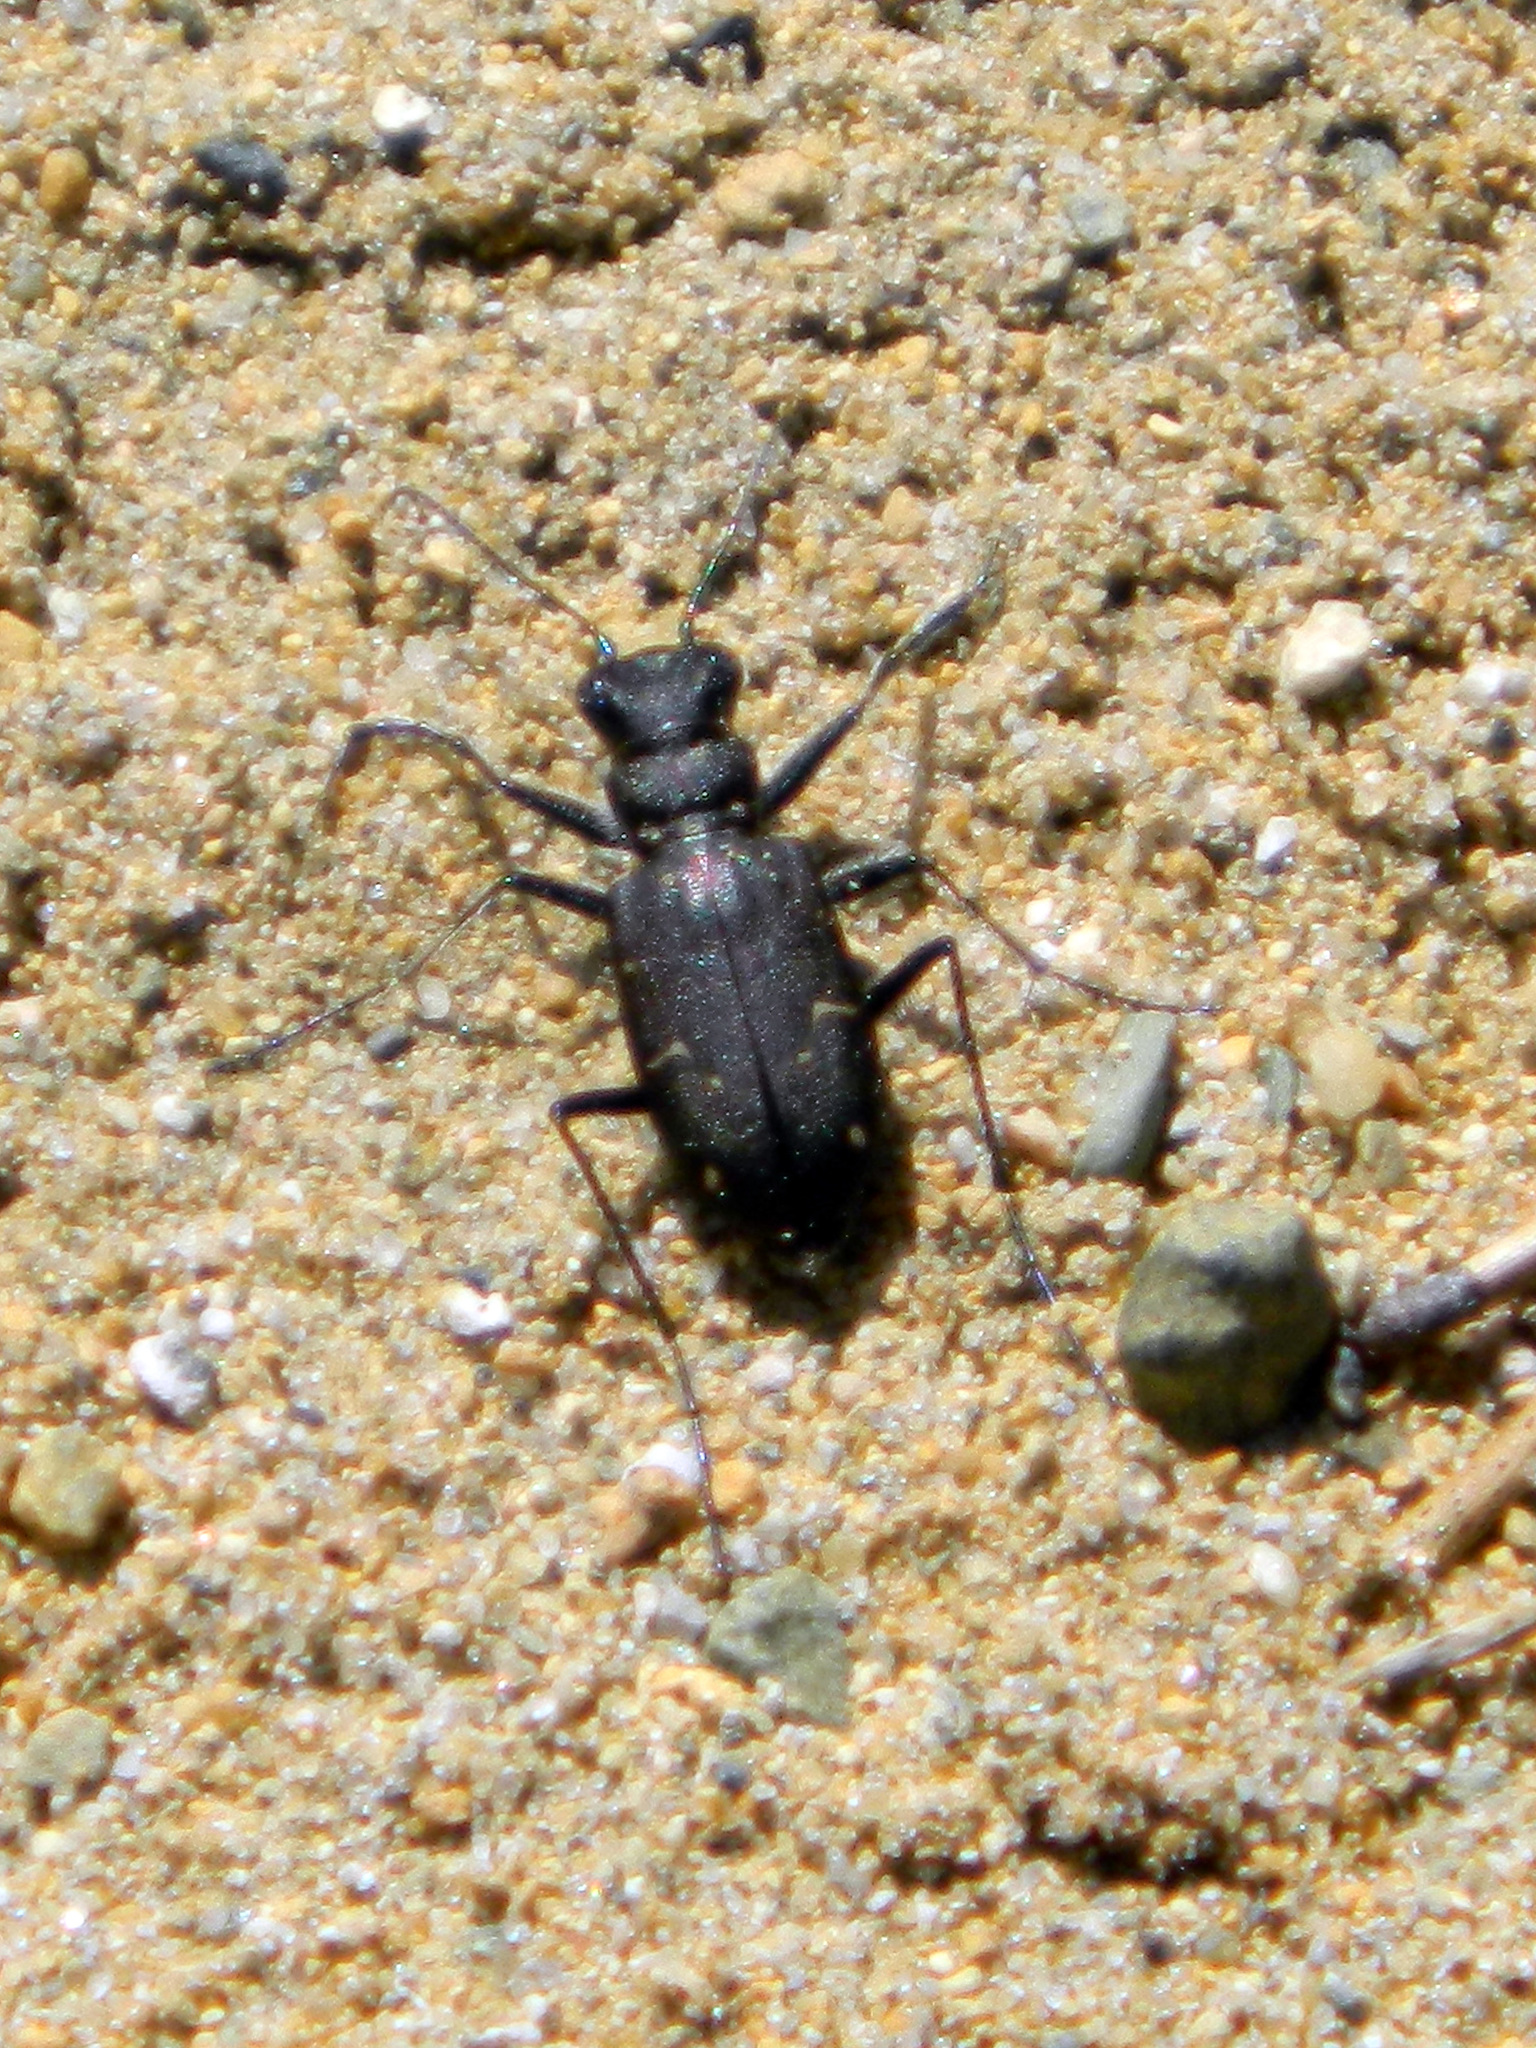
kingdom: Animalia
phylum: Arthropoda
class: Insecta
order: Coleoptera
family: Carabidae
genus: Cicindela
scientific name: Cicindela longilabris
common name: Boreal long-lipped tiger beetle
